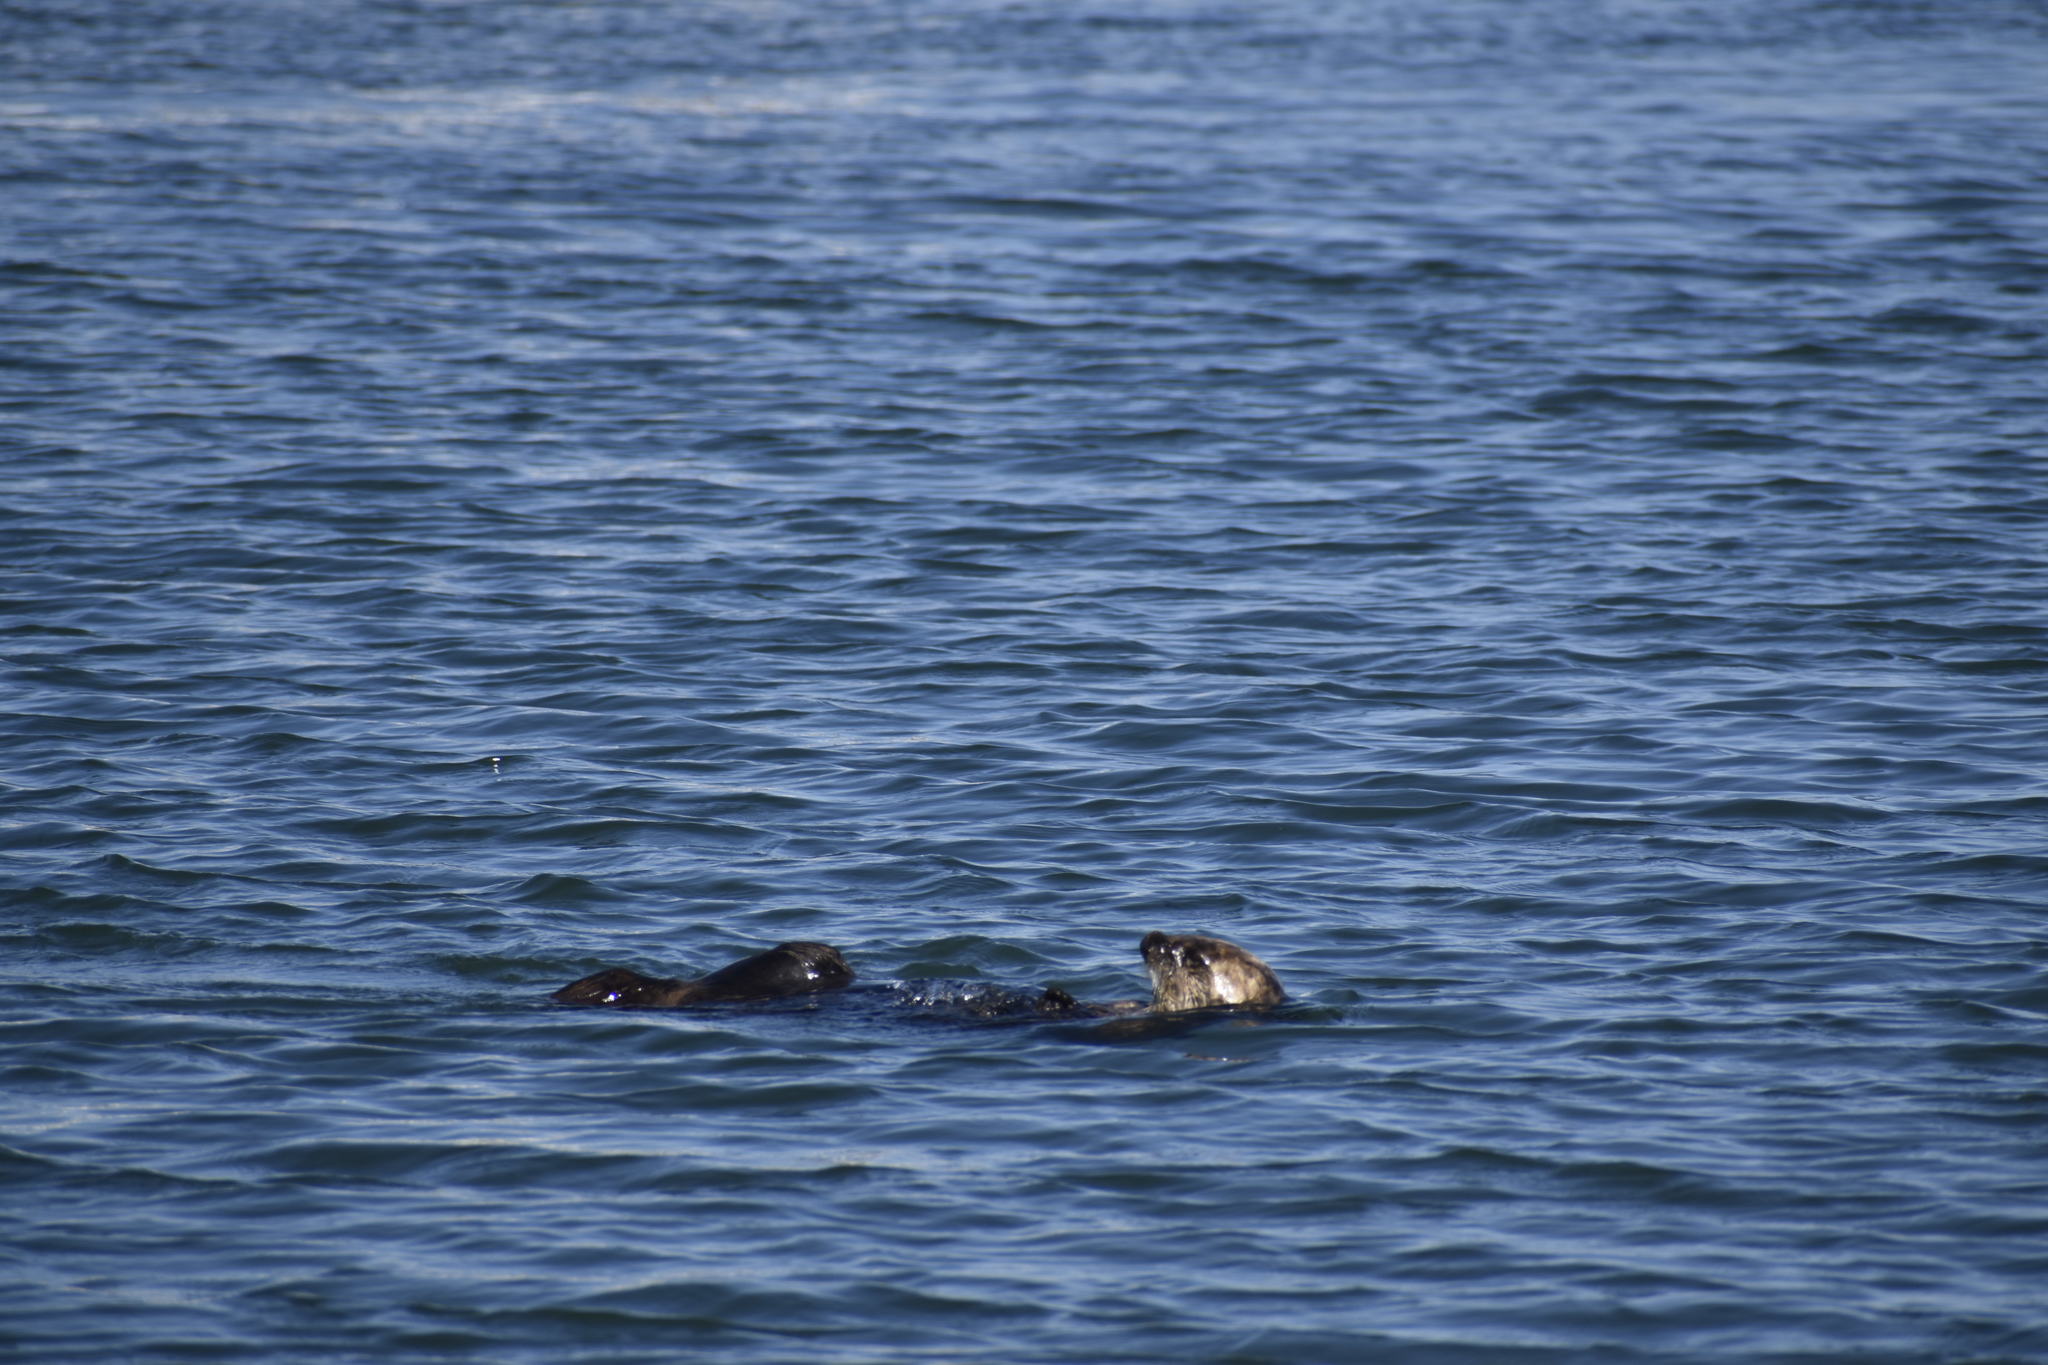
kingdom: Animalia
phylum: Chordata
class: Mammalia
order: Carnivora
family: Mustelidae
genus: Enhydra
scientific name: Enhydra lutris
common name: Sea otter
